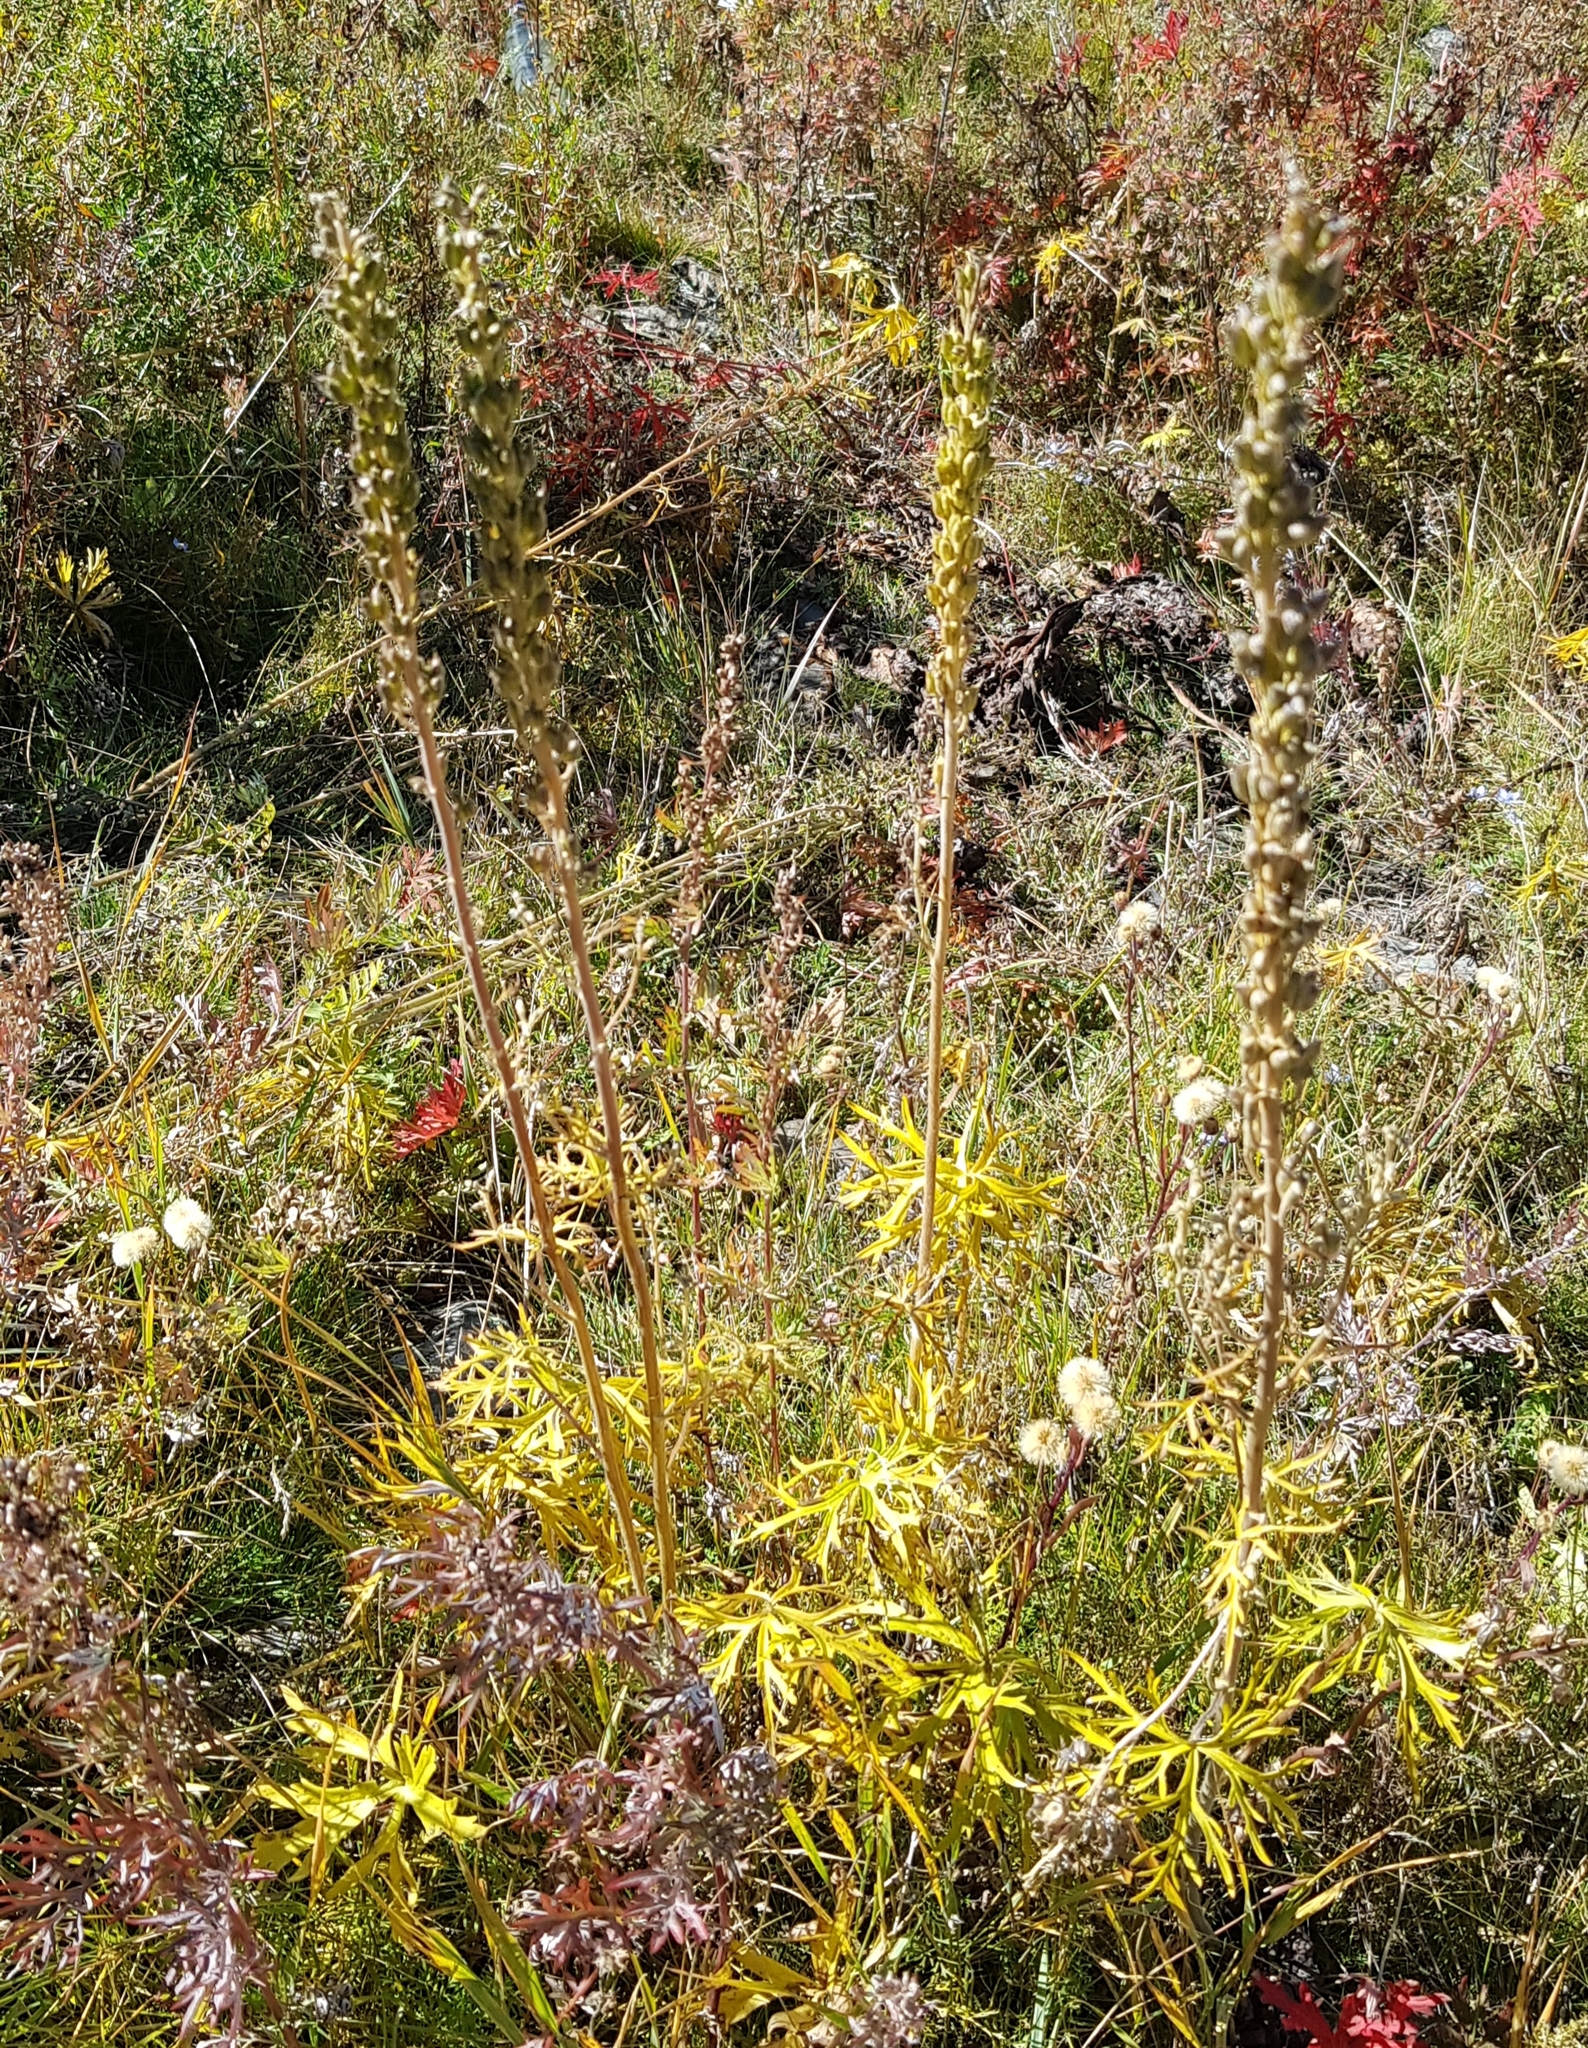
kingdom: Plantae
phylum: Tracheophyta
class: Magnoliopsida
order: Ranunculales
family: Ranunculaceae
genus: Aconitum
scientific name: Aconitum barbatum
